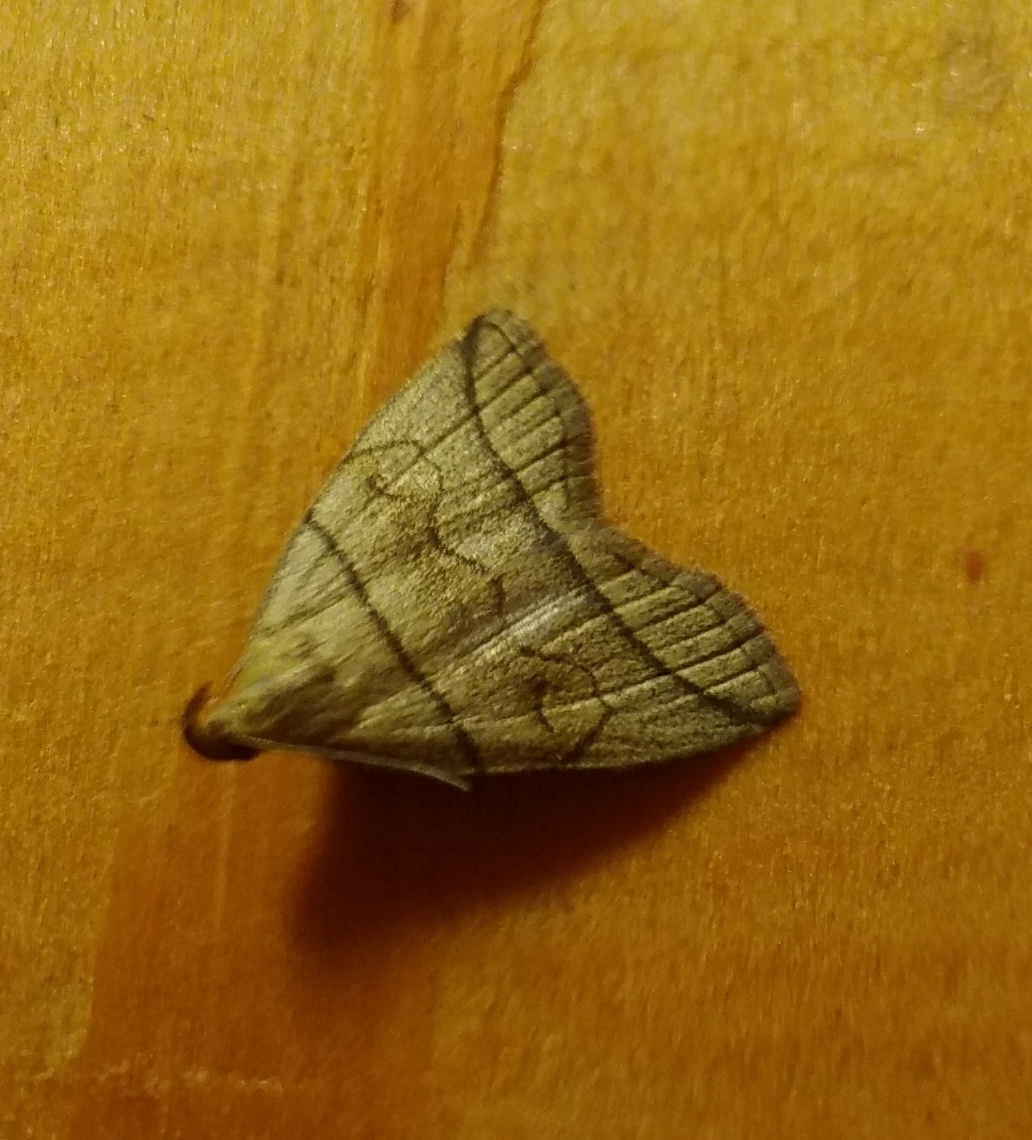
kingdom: Animalia
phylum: Arthropoda
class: Insecta
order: Lepidoptera
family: Erebidae
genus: Herminia
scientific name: Herminia grisealis
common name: Small fan-foot
